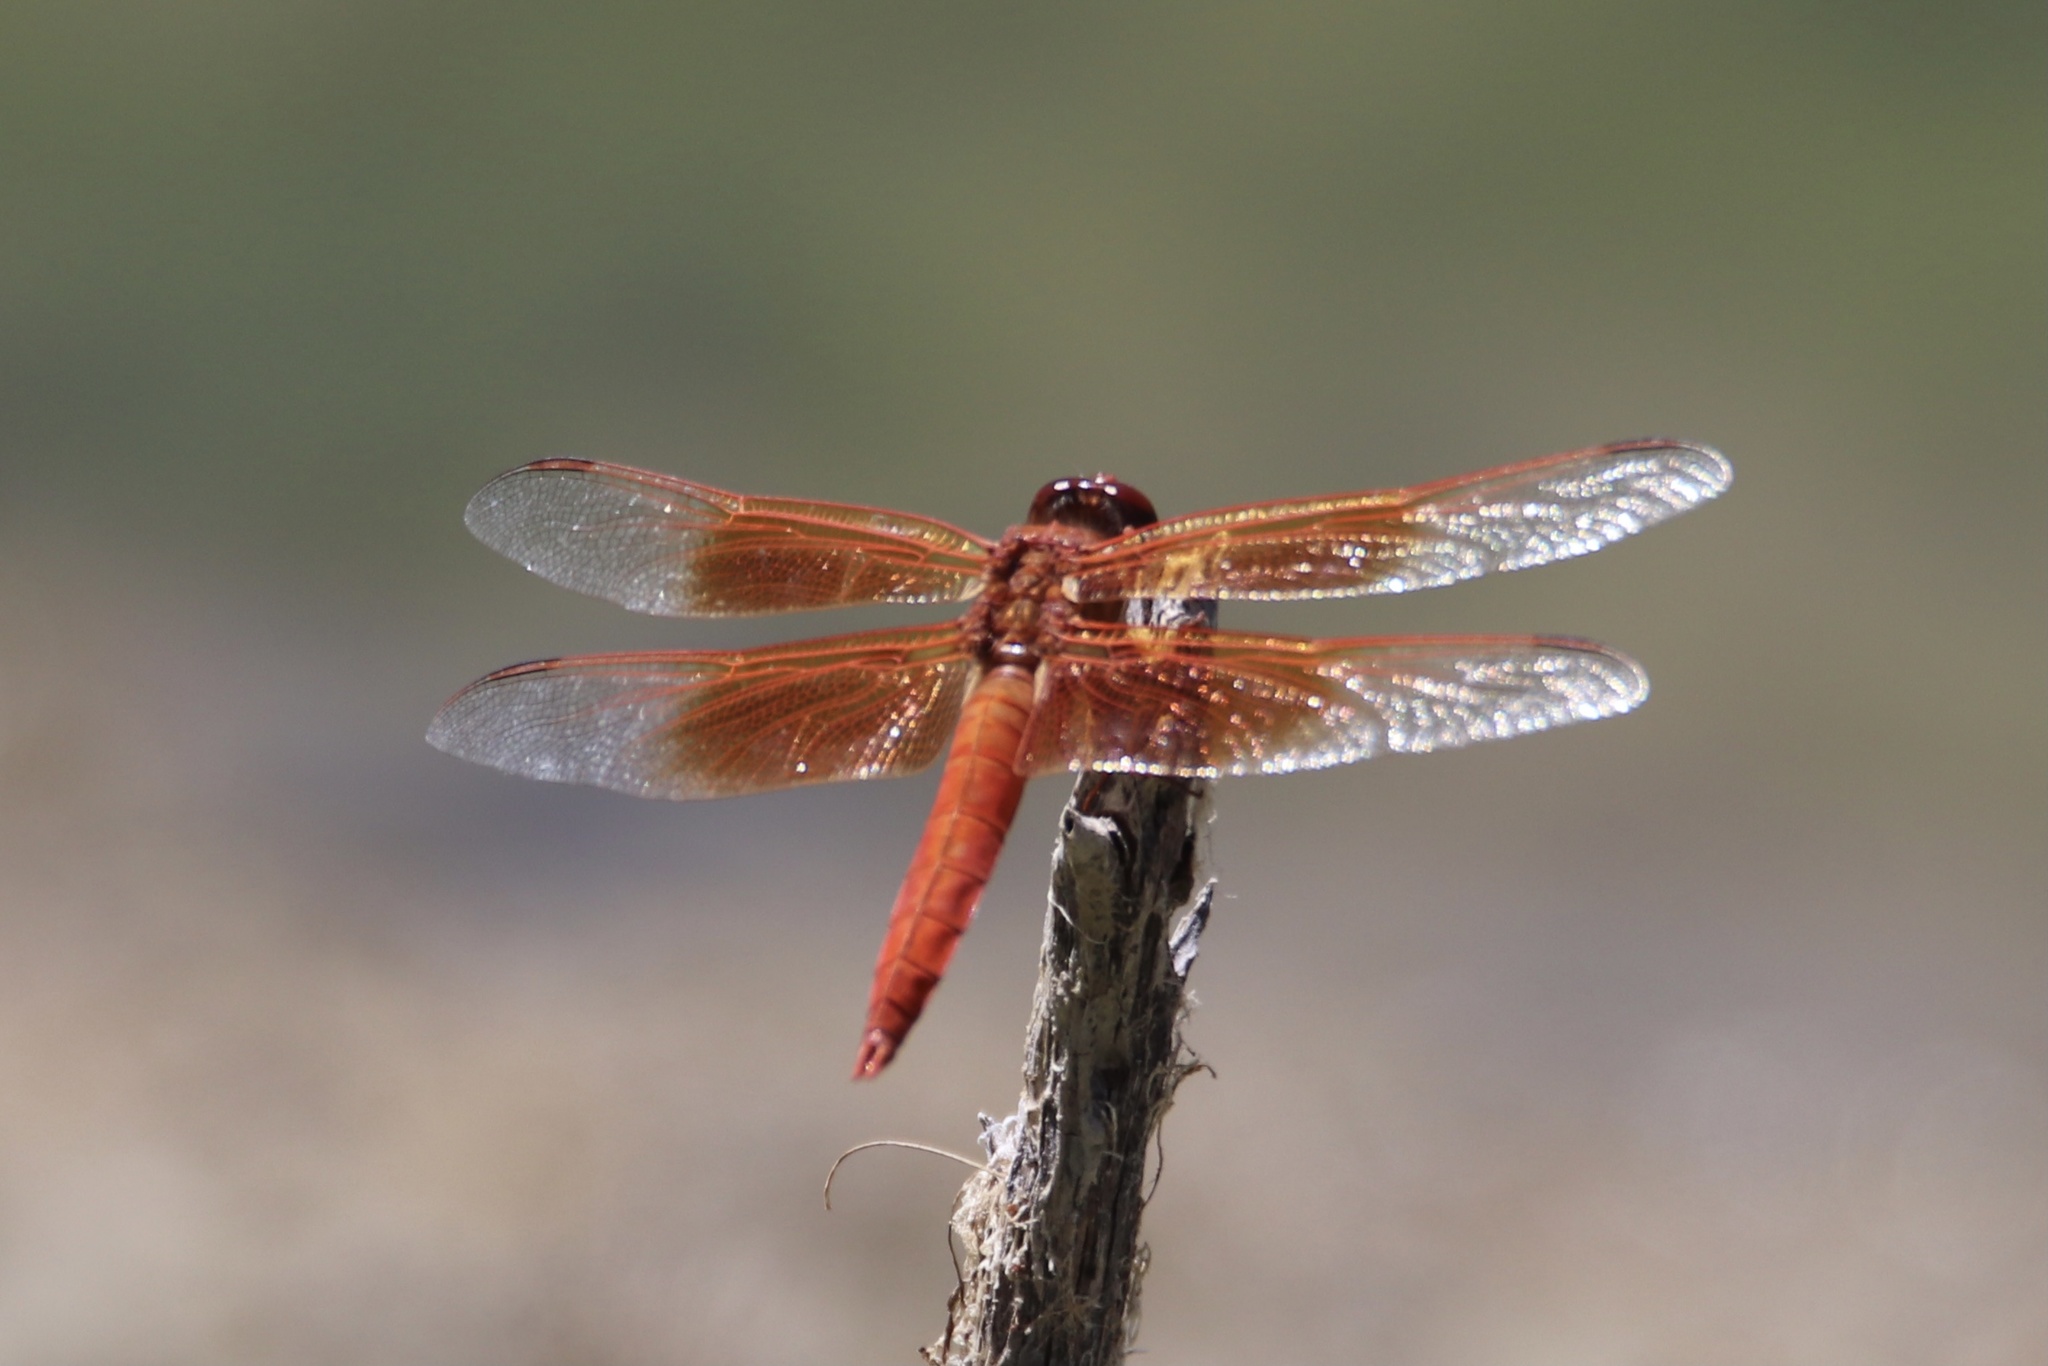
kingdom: Animalia
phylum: Arthropoda
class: Insecta
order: Odonata
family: Libellulidae
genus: Libellula
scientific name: Libellula saturata
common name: Flame skimmer
